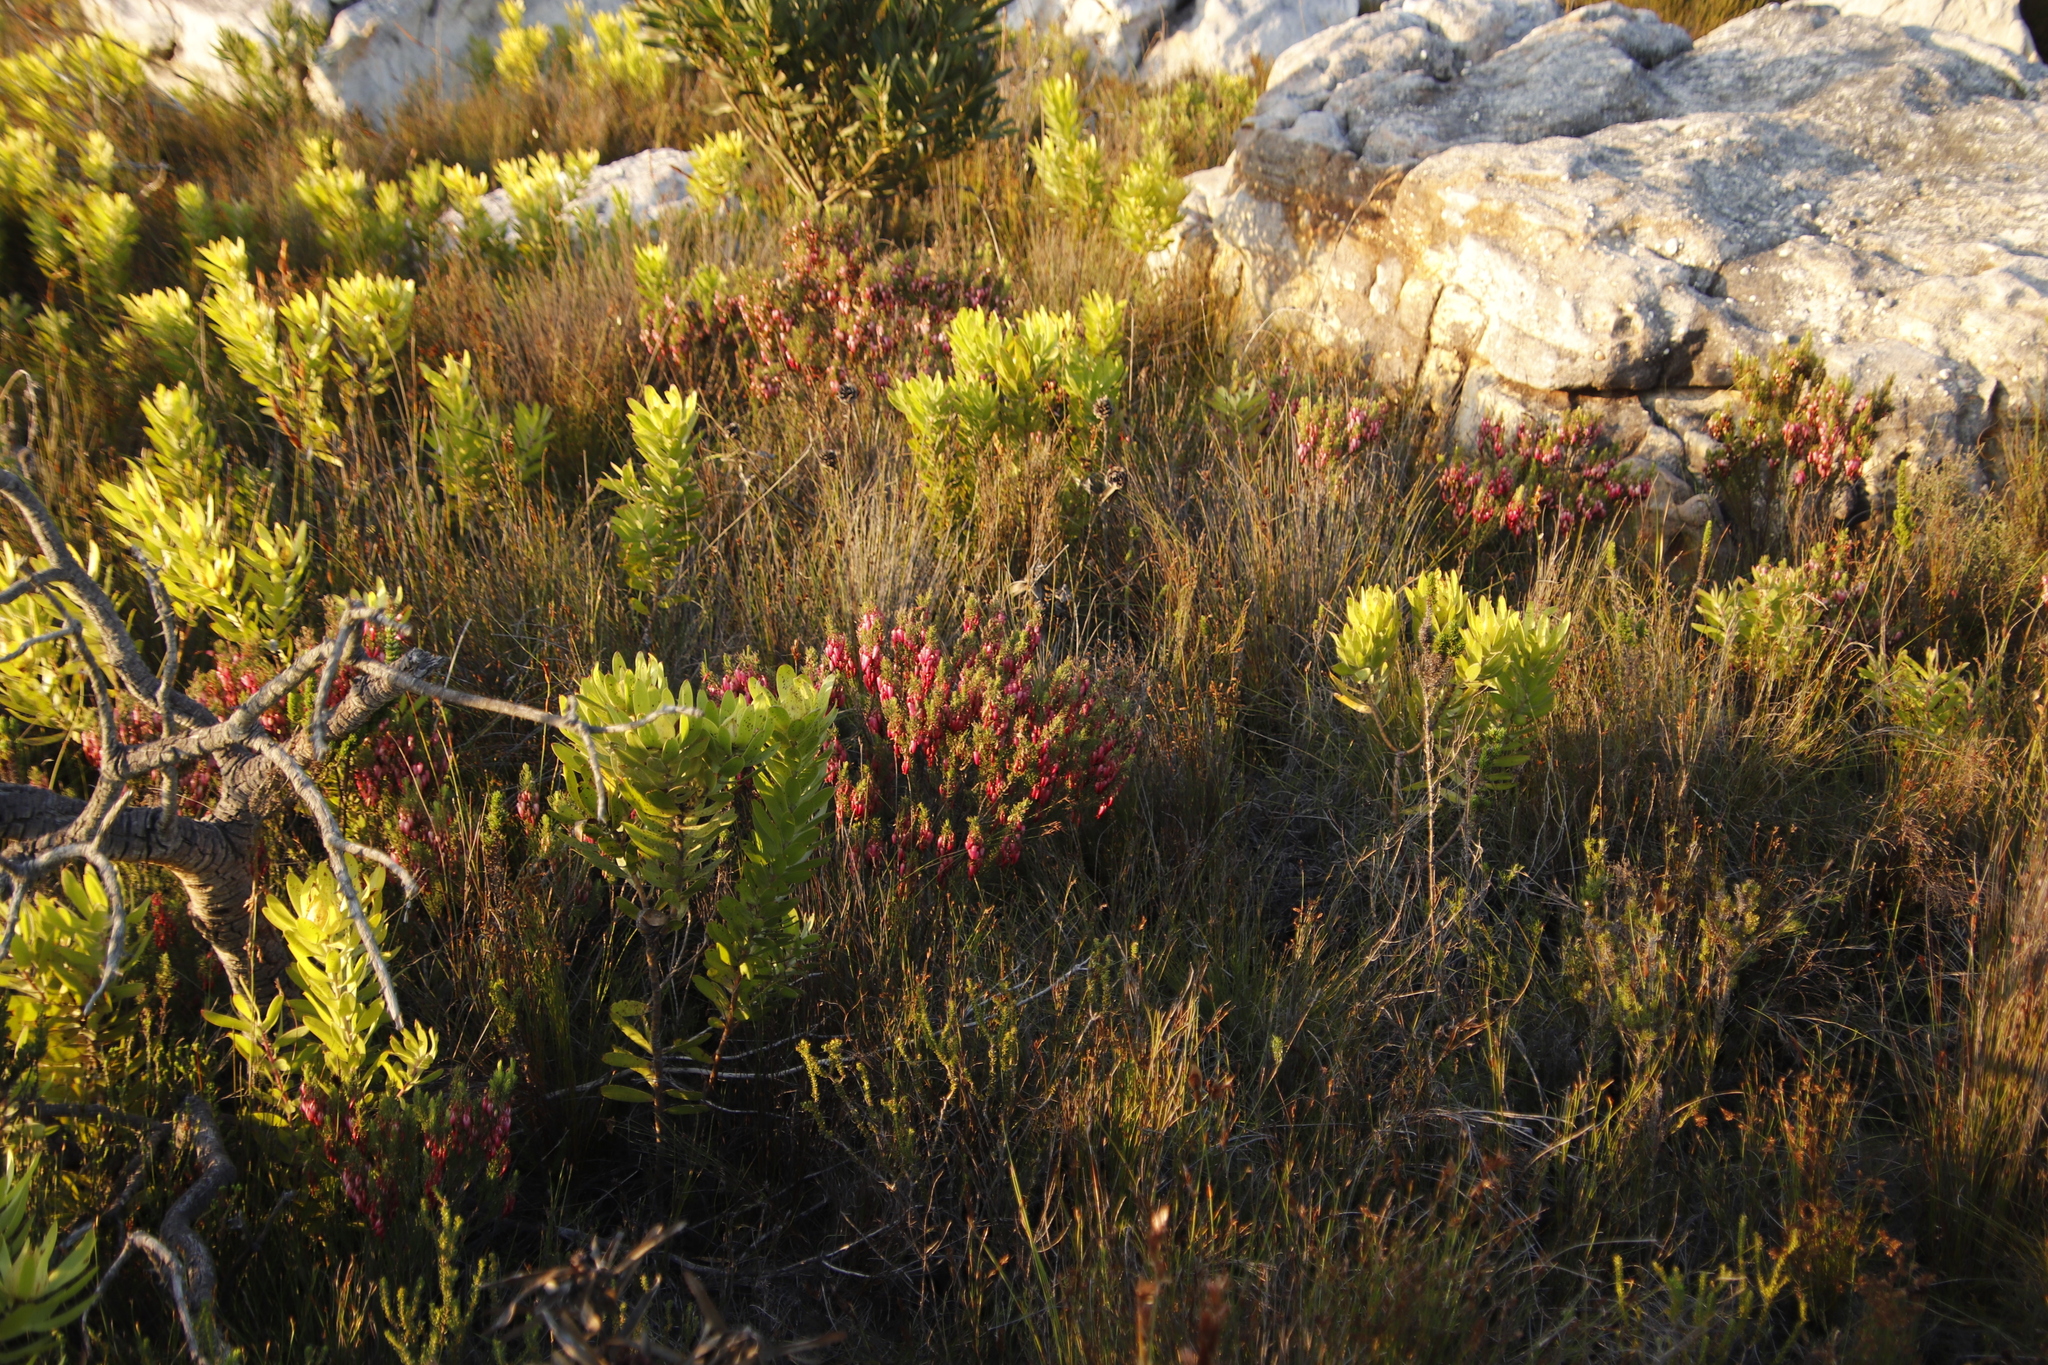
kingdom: Plantae
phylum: Tracheophyta
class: Magnoliopsida
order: Proteales
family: Proteaceae
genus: Leucadendron
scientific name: Leucadendron laureolum
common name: Golden sunshinebush
